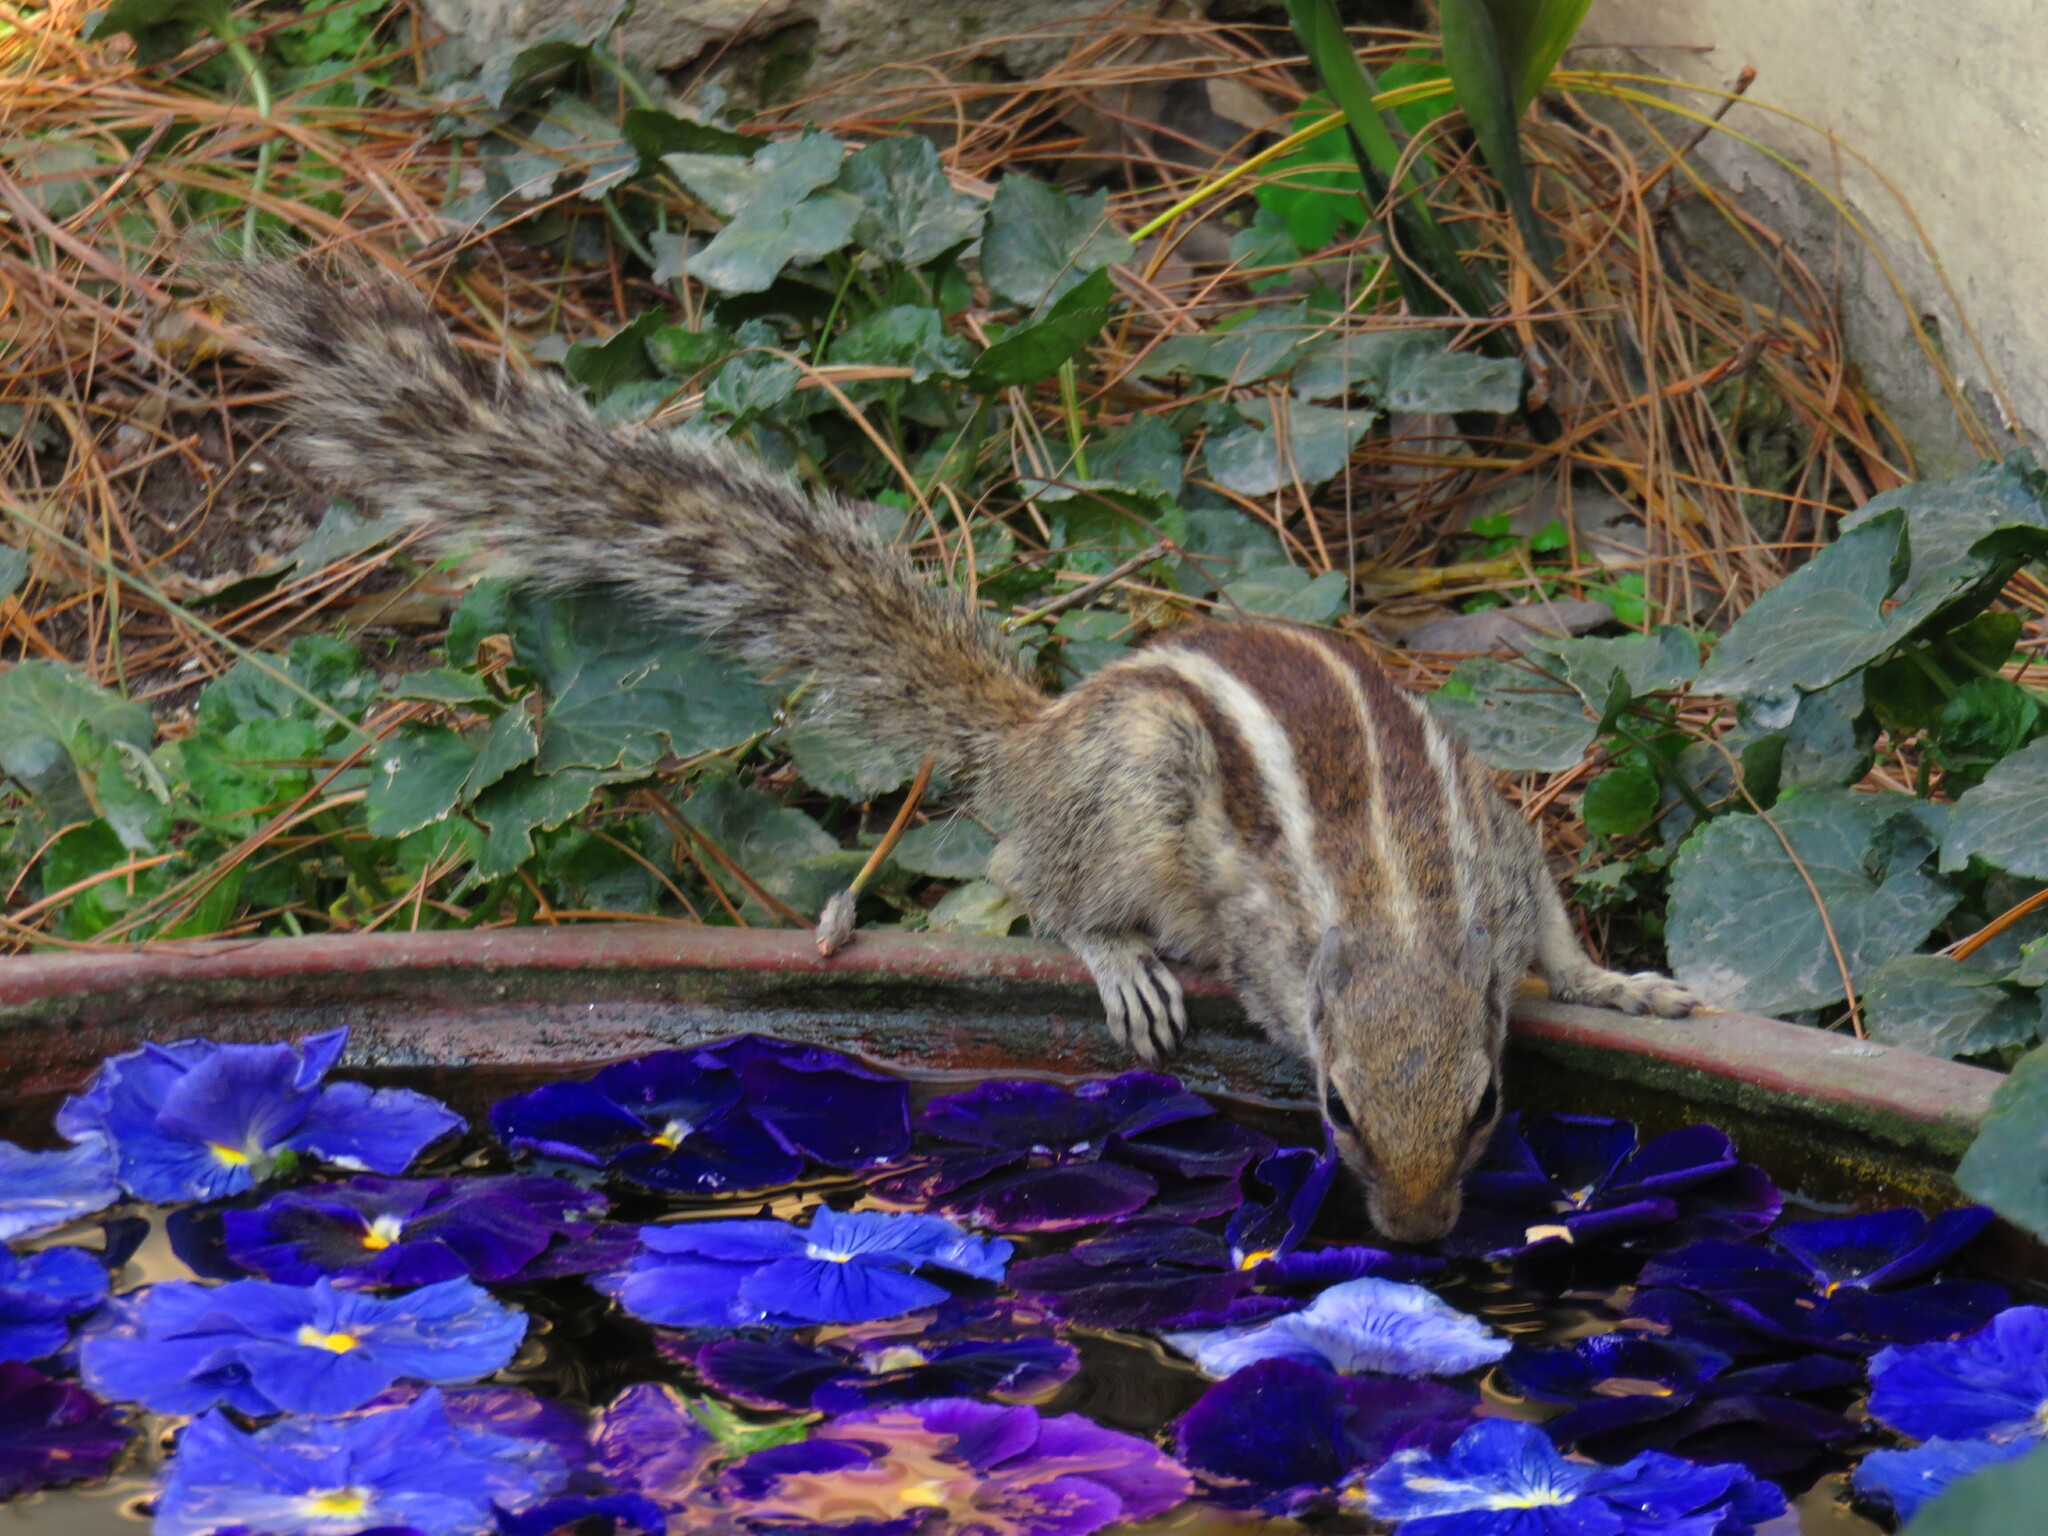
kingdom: Animalia
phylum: Chordata
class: Mammalia
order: Rodentia
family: Sciuridae
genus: Funambulus
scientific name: Funambulus pennantii
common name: Northern palm squirrel
